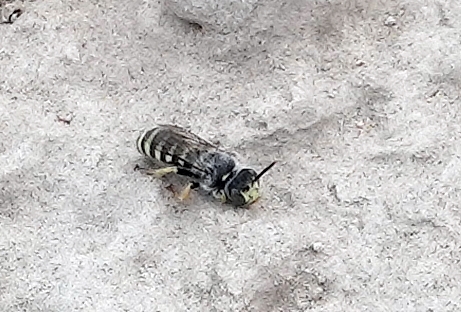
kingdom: Animalia
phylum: Arthropoda
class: Insecta
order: Hymenoptera
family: Andrenidae
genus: Calliopsis
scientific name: Calliopsis
